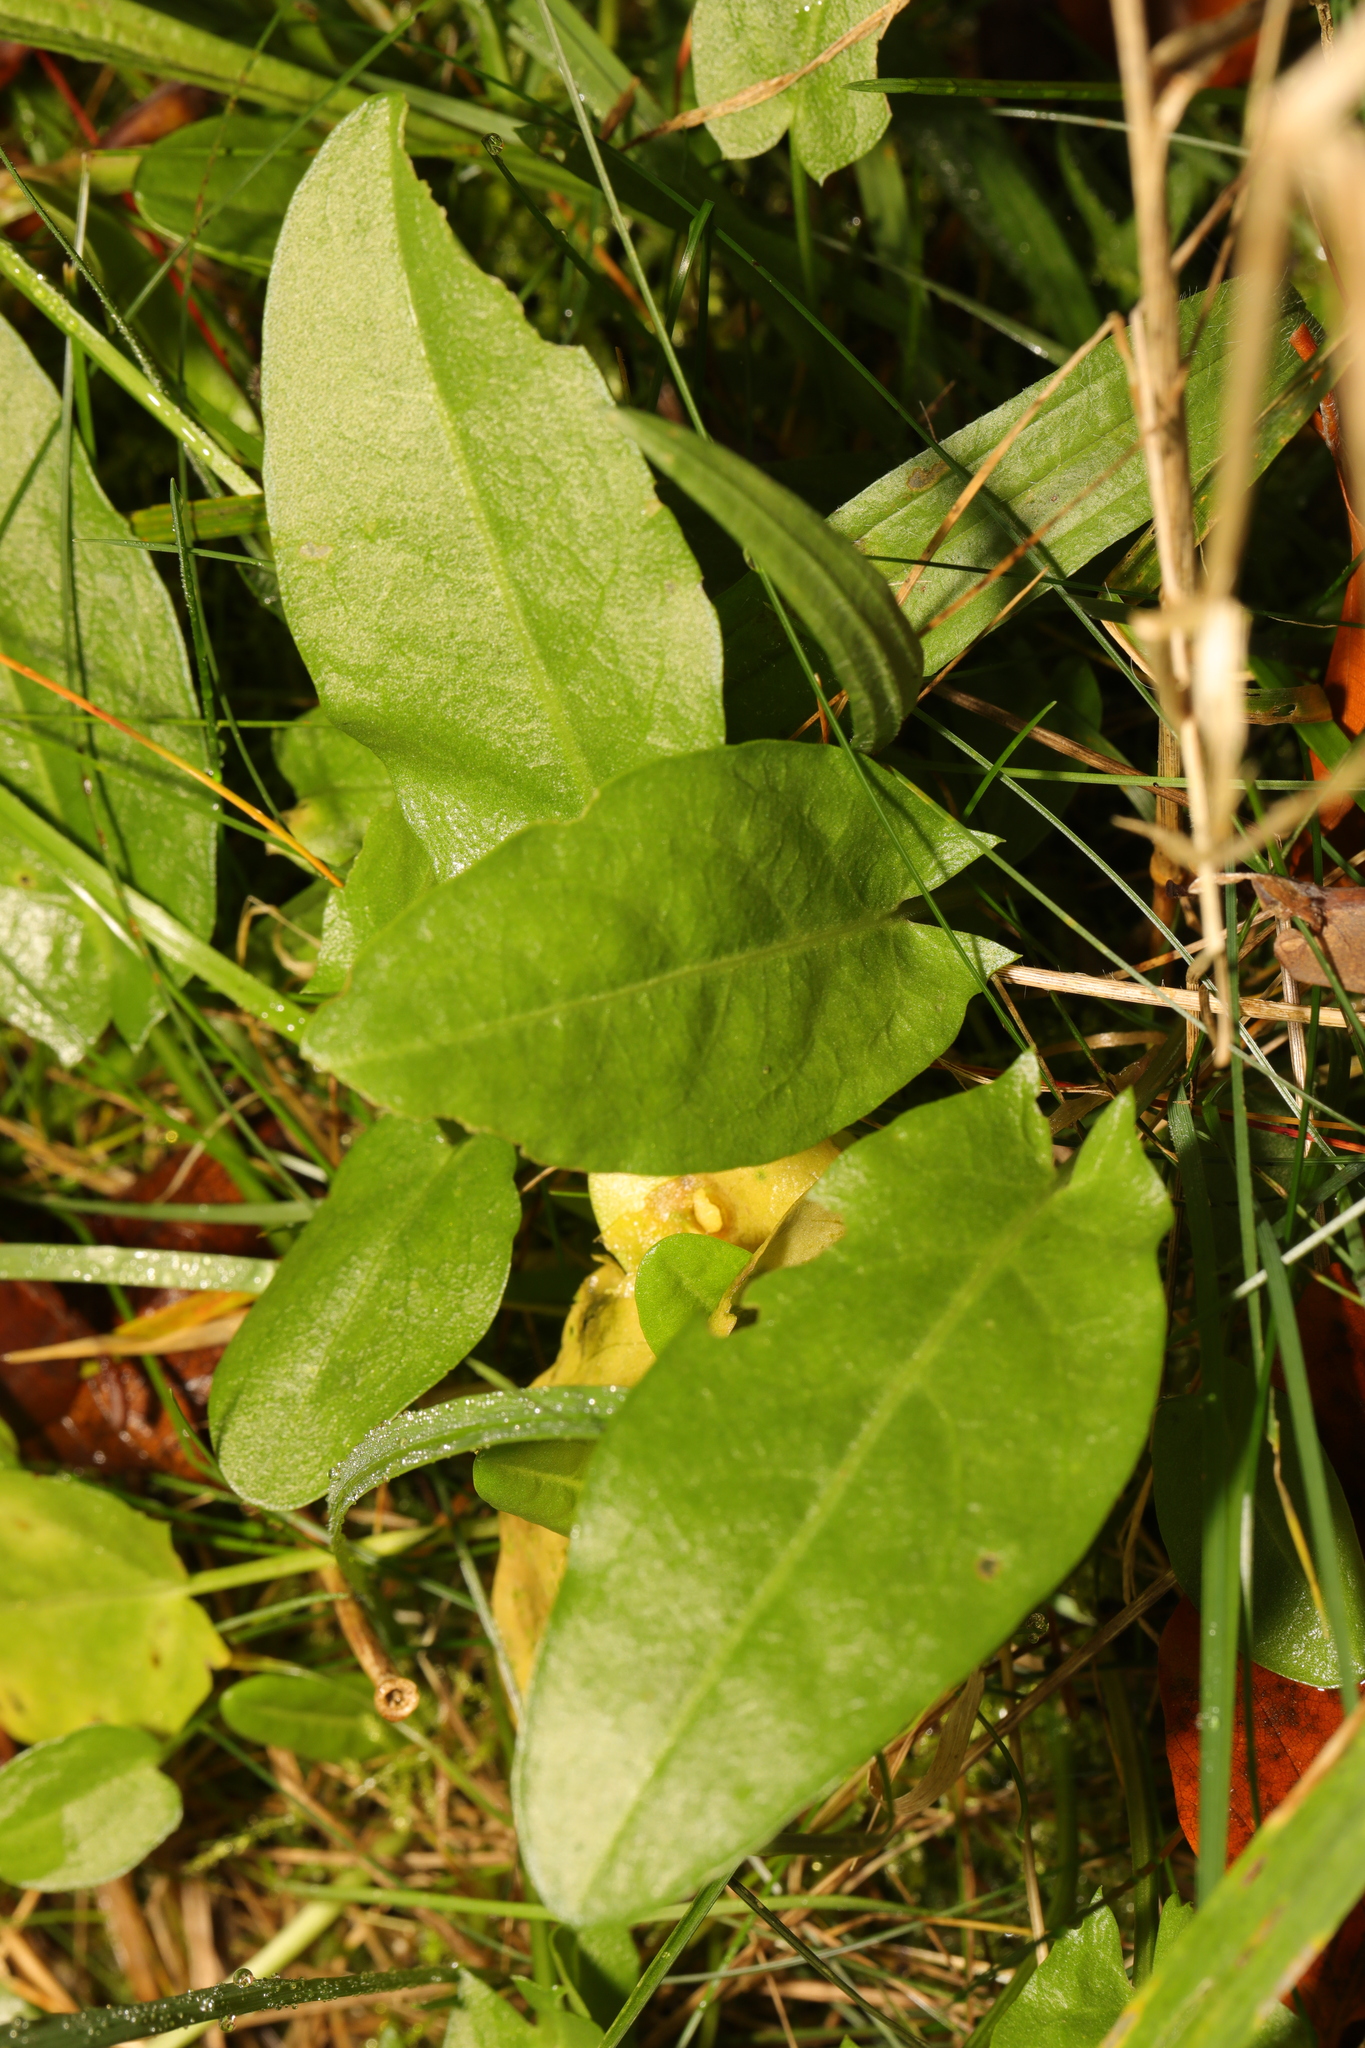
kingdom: Plantae
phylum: Tracheophyta
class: Magnoliopsida
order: Caryophyllales
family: Polygonaceae
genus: Rumex
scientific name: Rumex acetosa
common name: Garden sorrel
